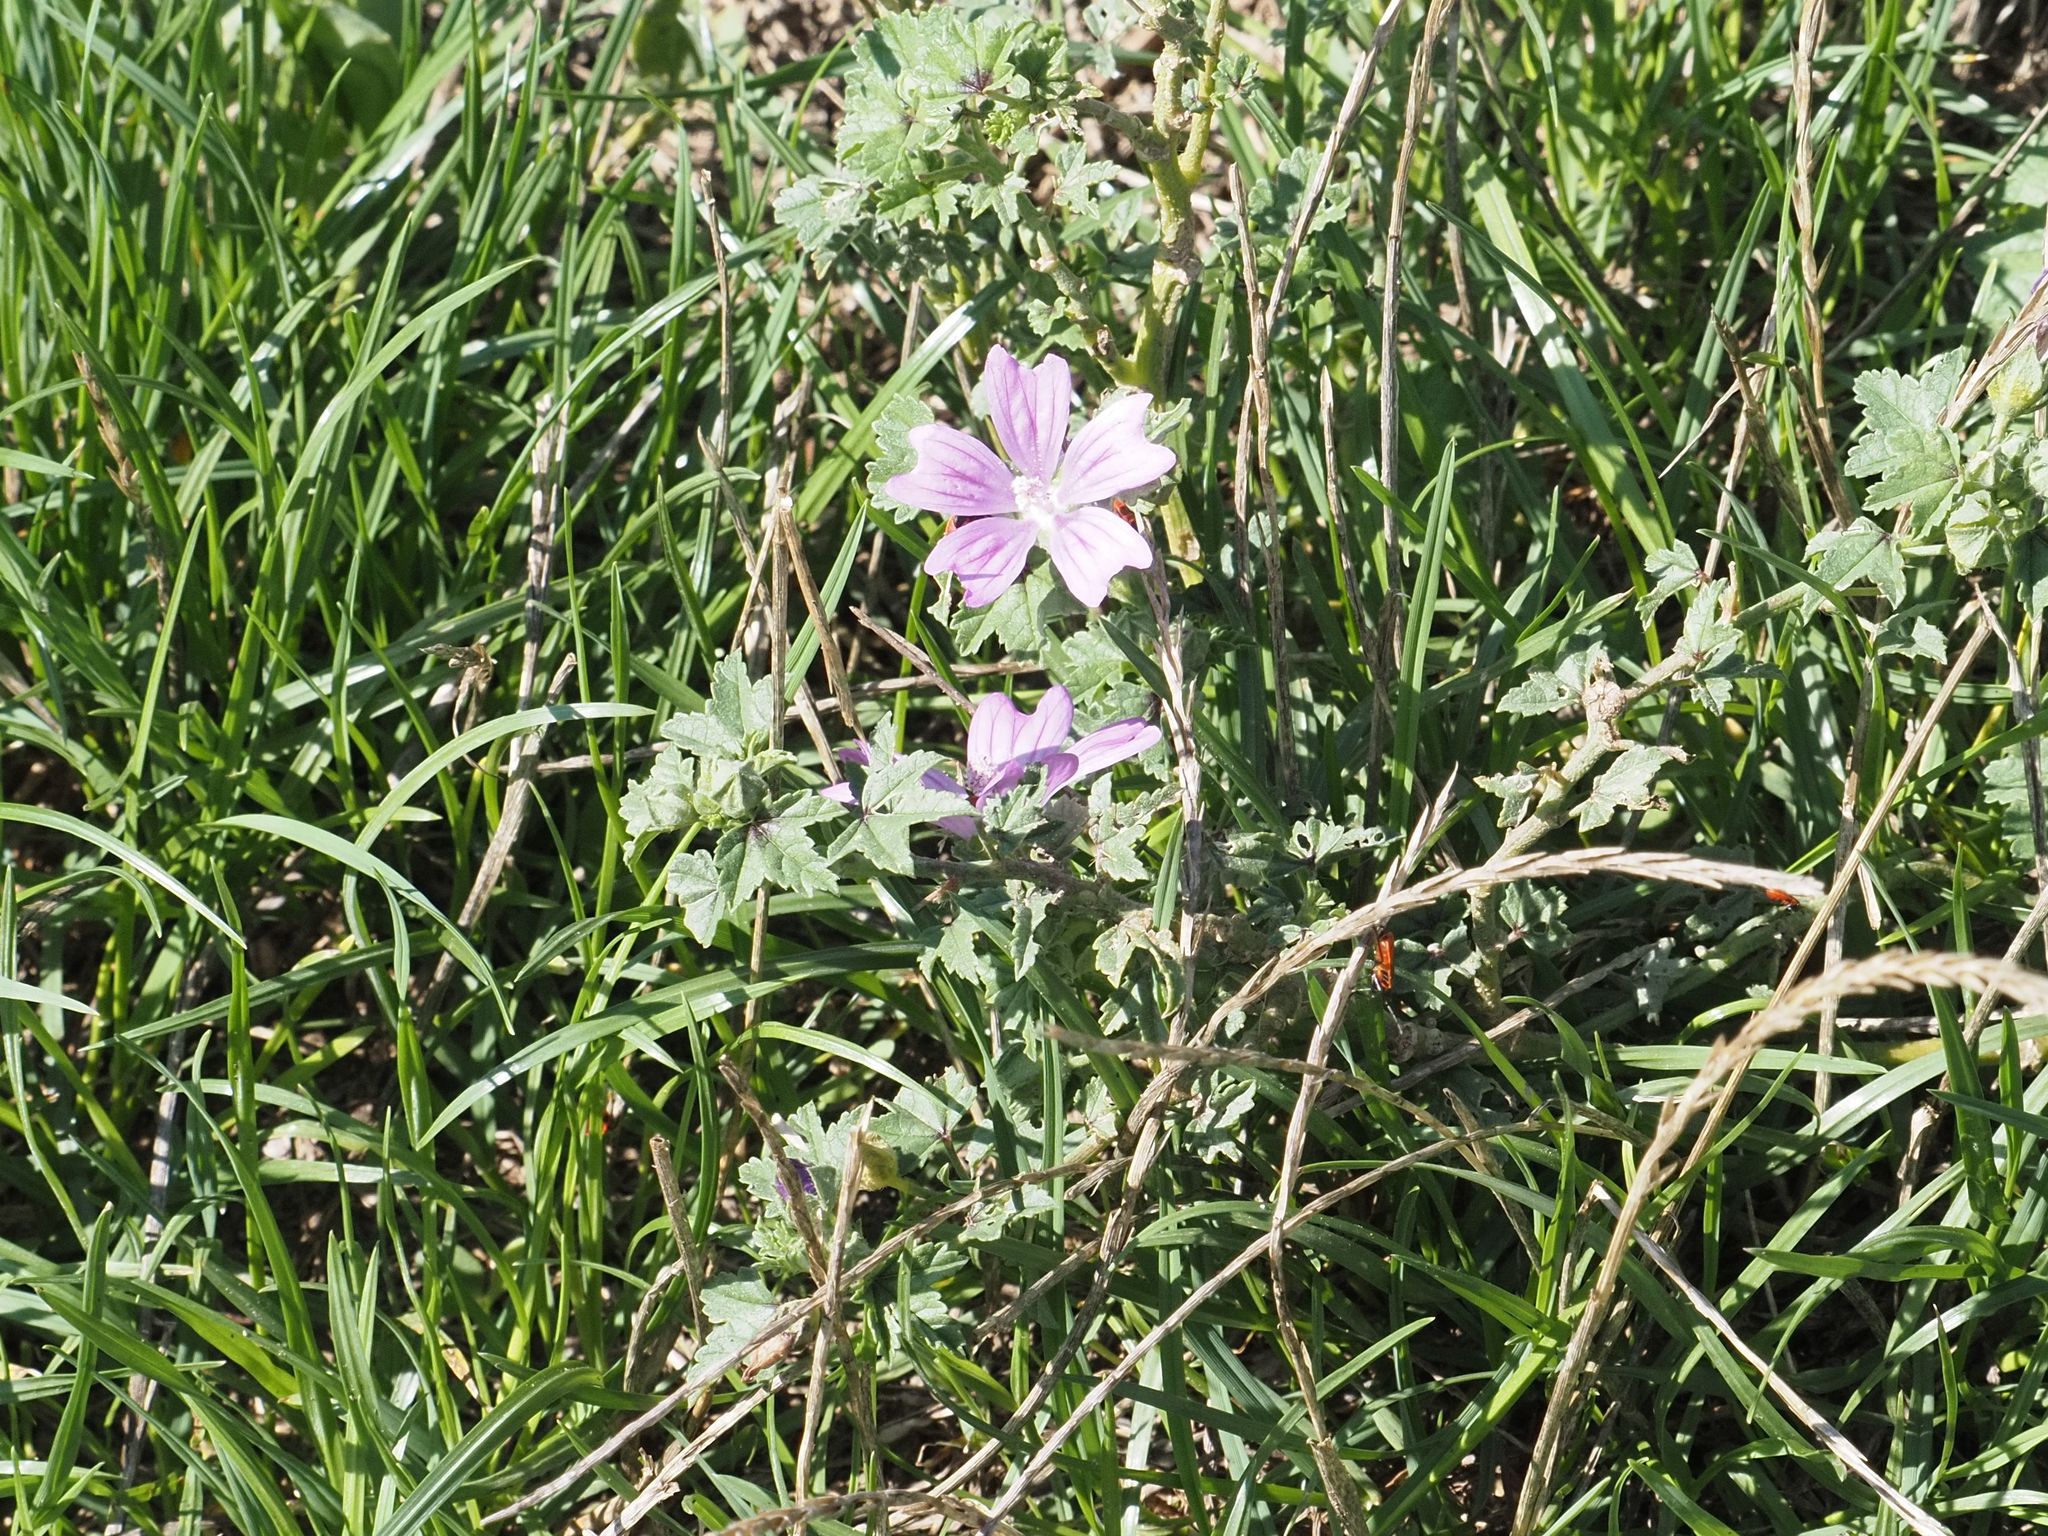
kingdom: Plantae
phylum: Tracheophyta
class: Magnoliopsida
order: Malvales
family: Malvaceae
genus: Malva
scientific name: Malva sylvestris
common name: Common mallow
